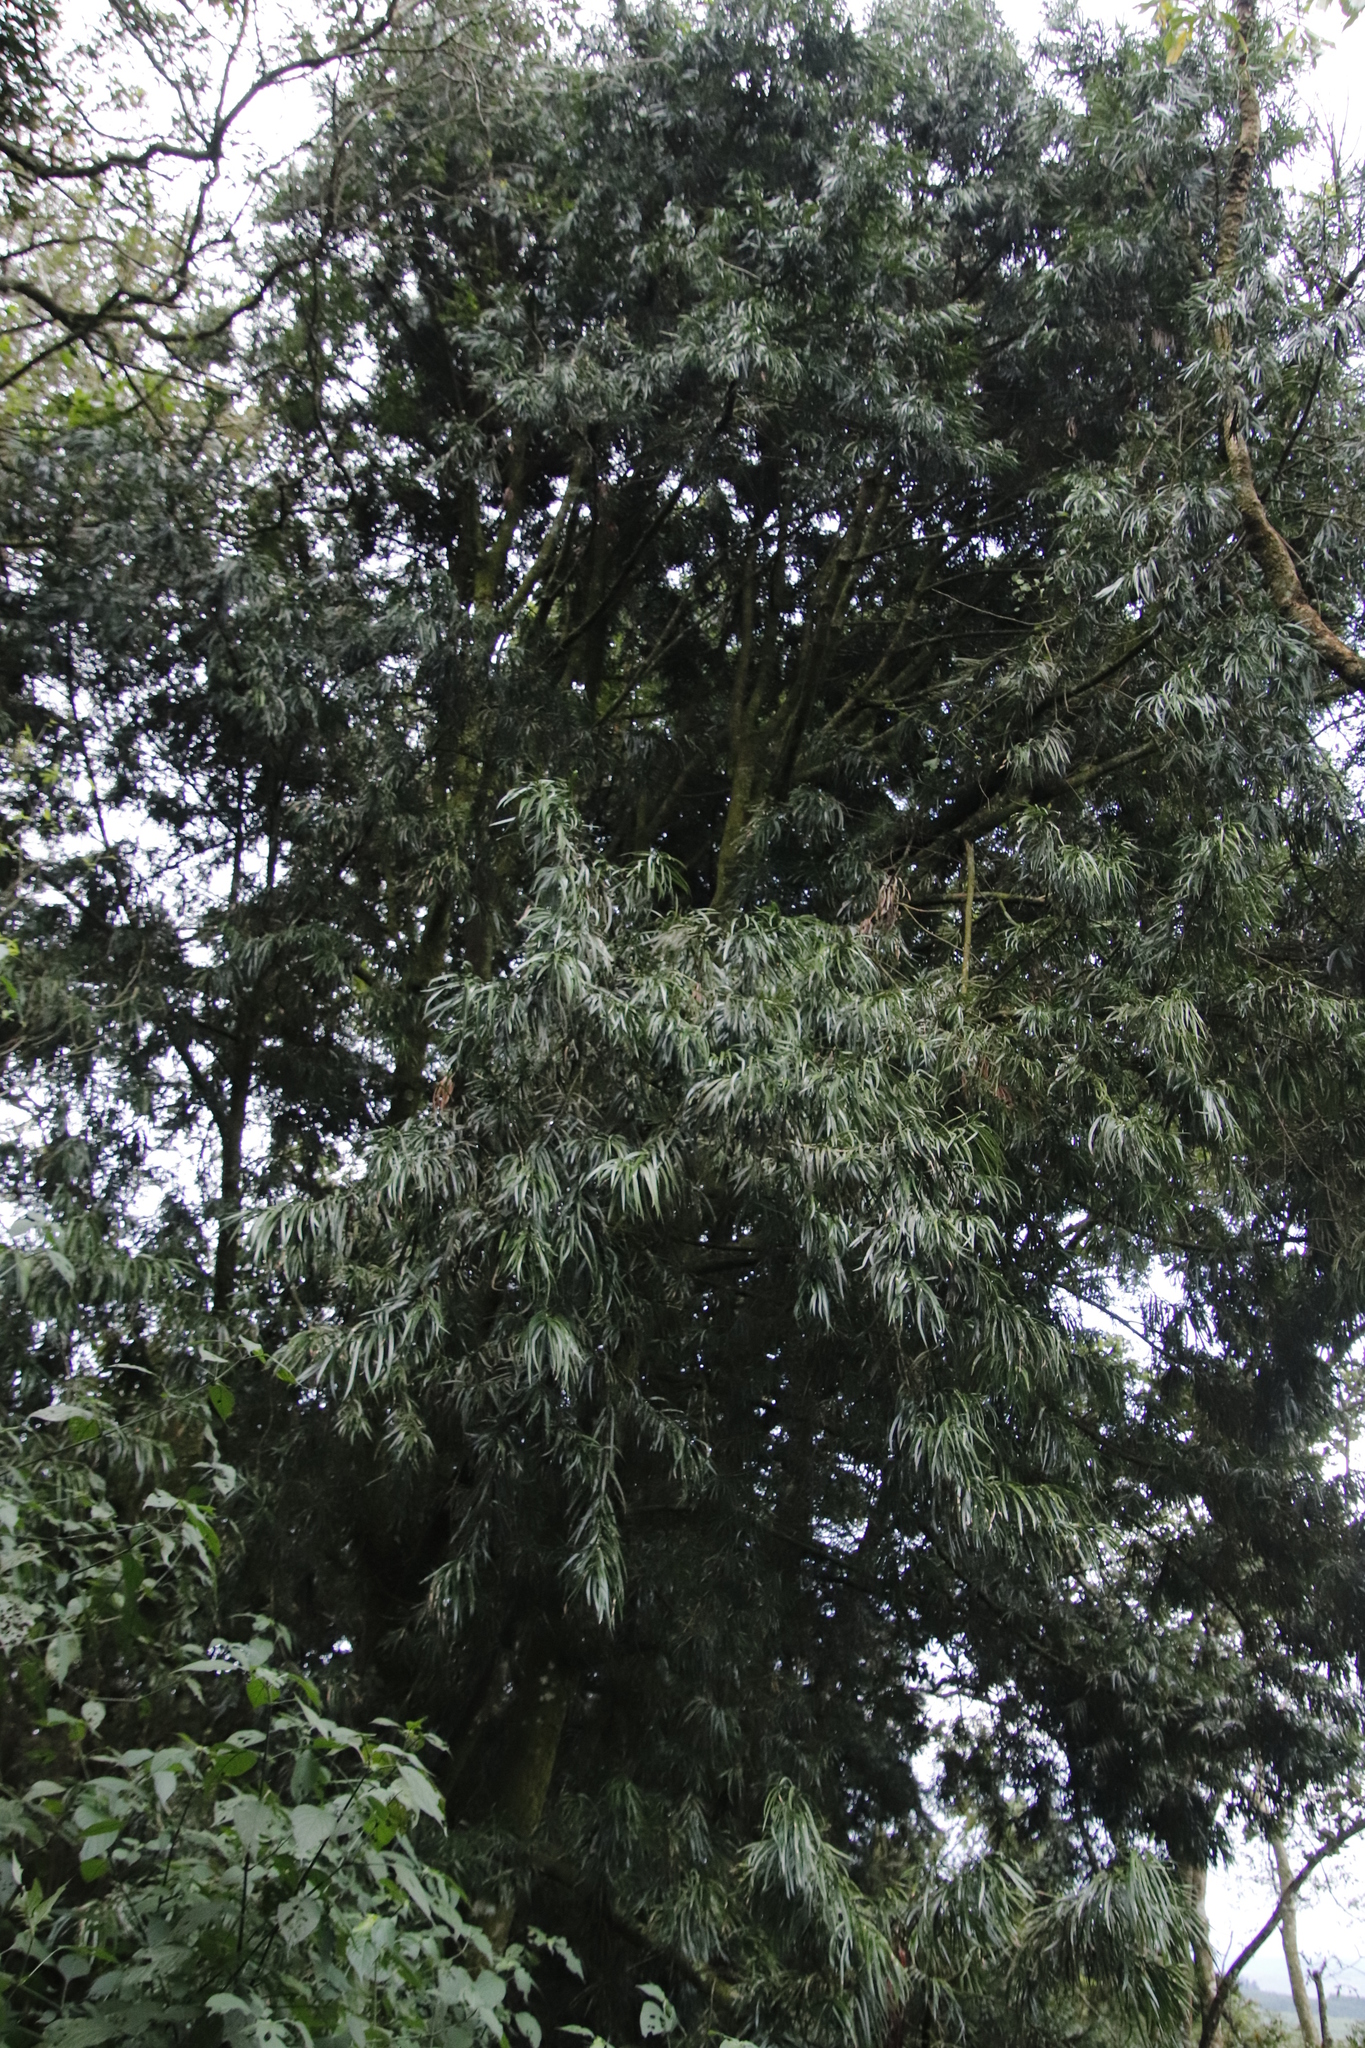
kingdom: Plantae
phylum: Tracheophyta
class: Pinopsida
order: Pinales
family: Podocarpaceae
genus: Podocarpus
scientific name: Podocarpus henkelii
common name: Henkel's yellowwood
